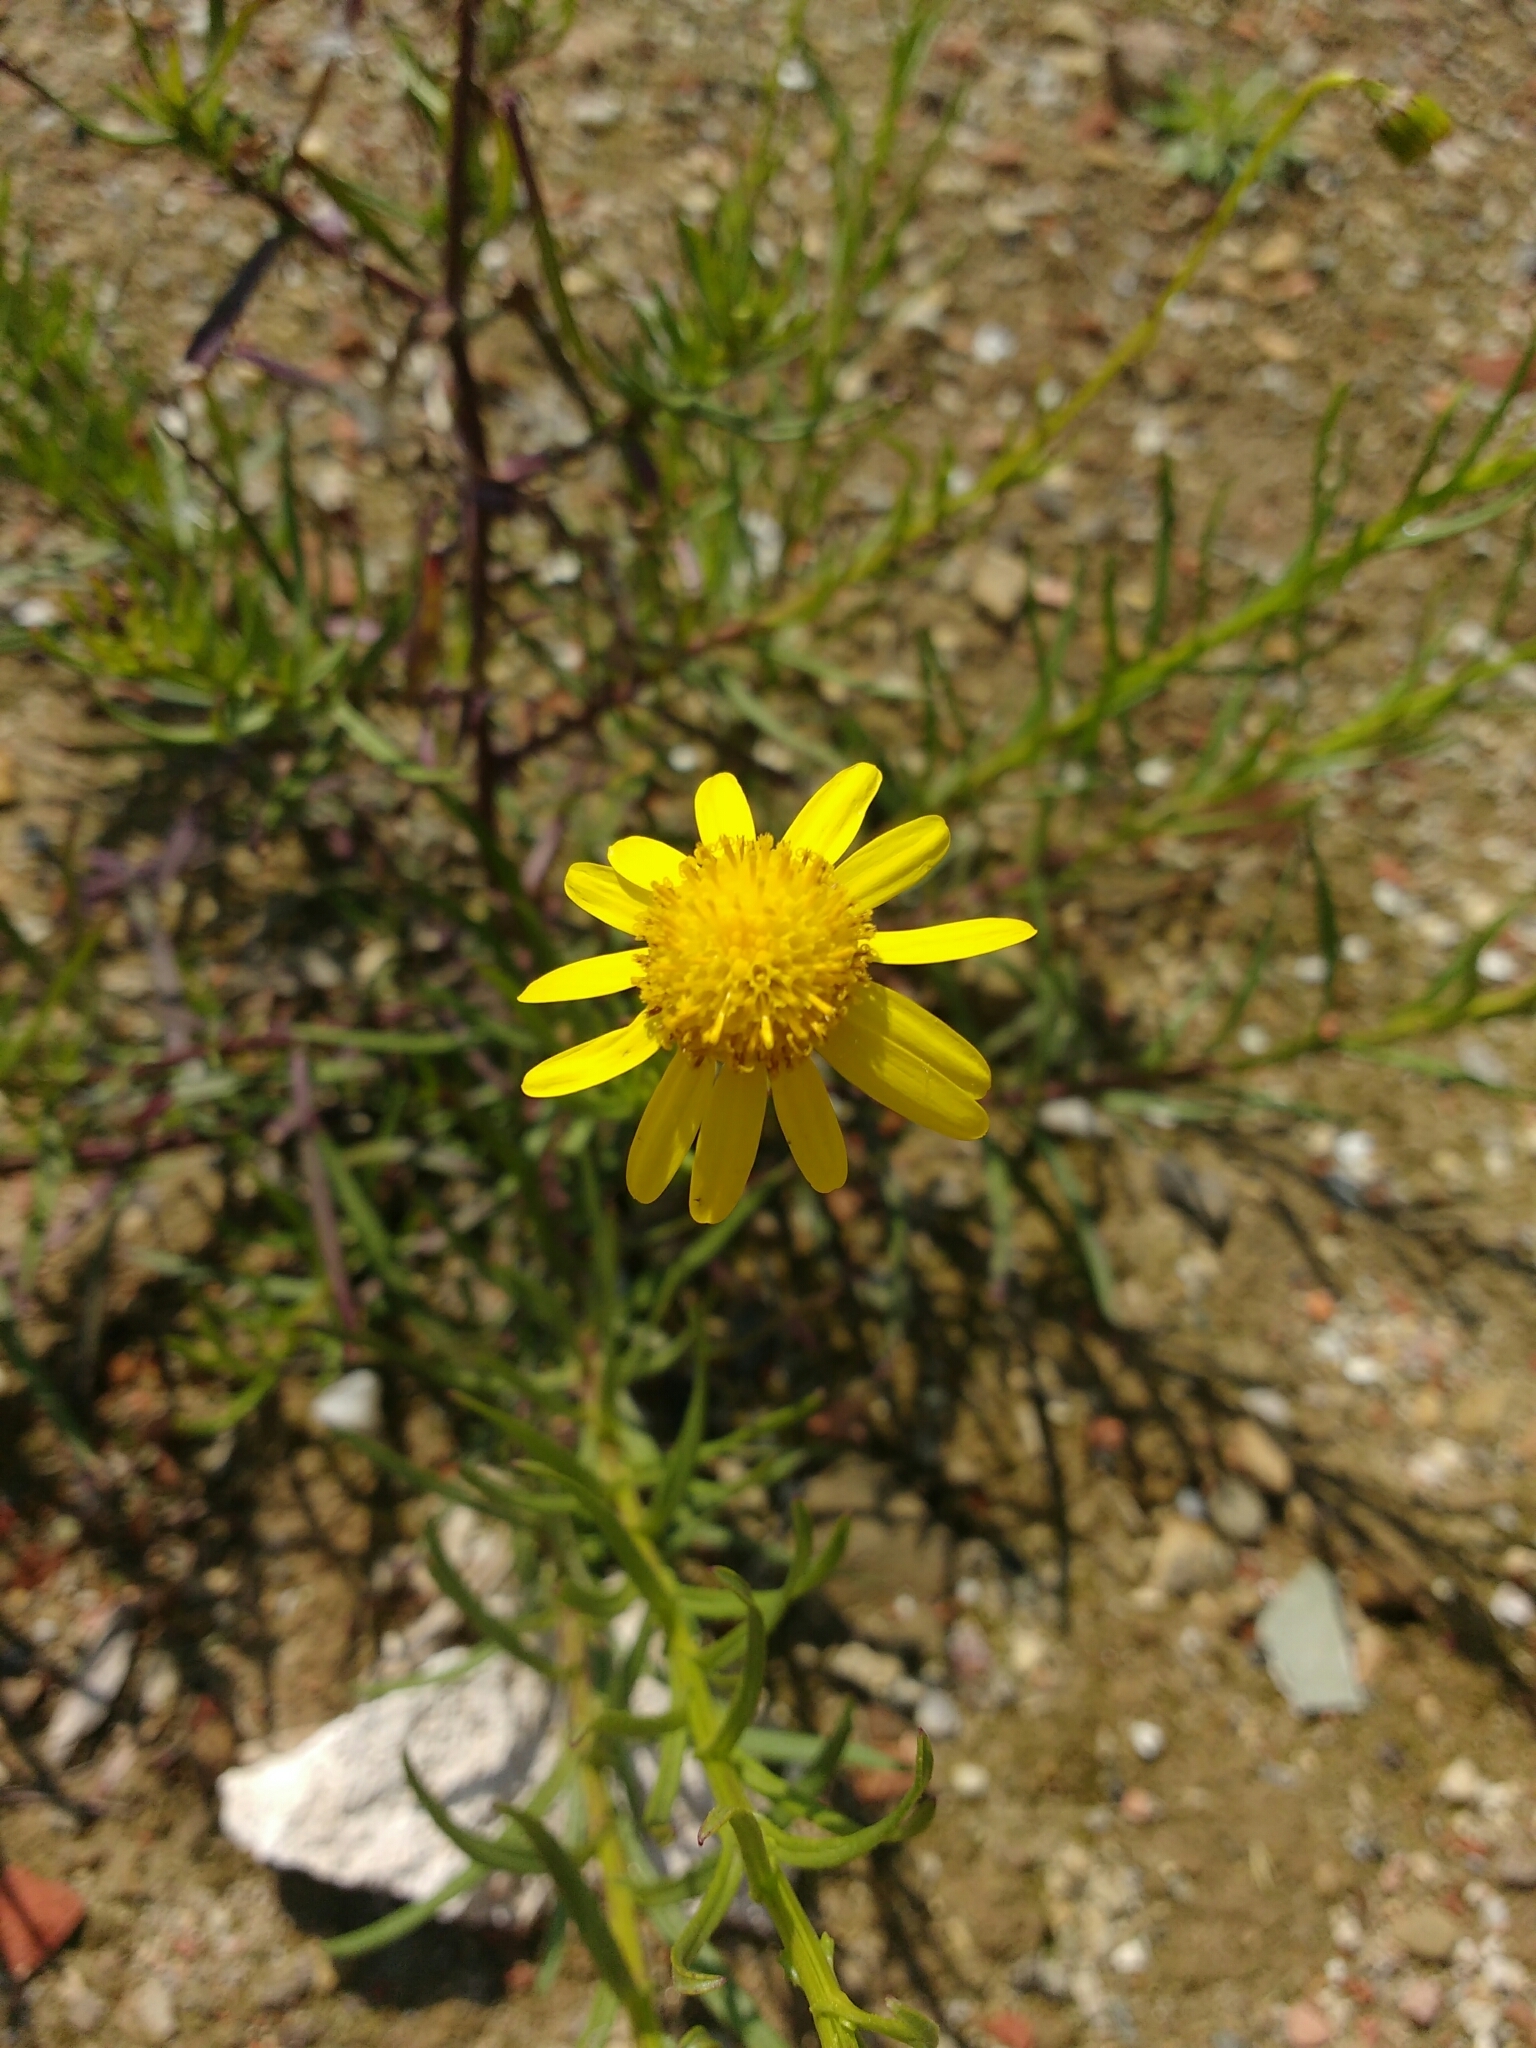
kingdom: Plantae
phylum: Tracheophyta
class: Magnoliopsida
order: Asterales
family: Asteraceae
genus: Senecio
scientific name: Senecio inaequidens
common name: Narrow-leaved ragwort
